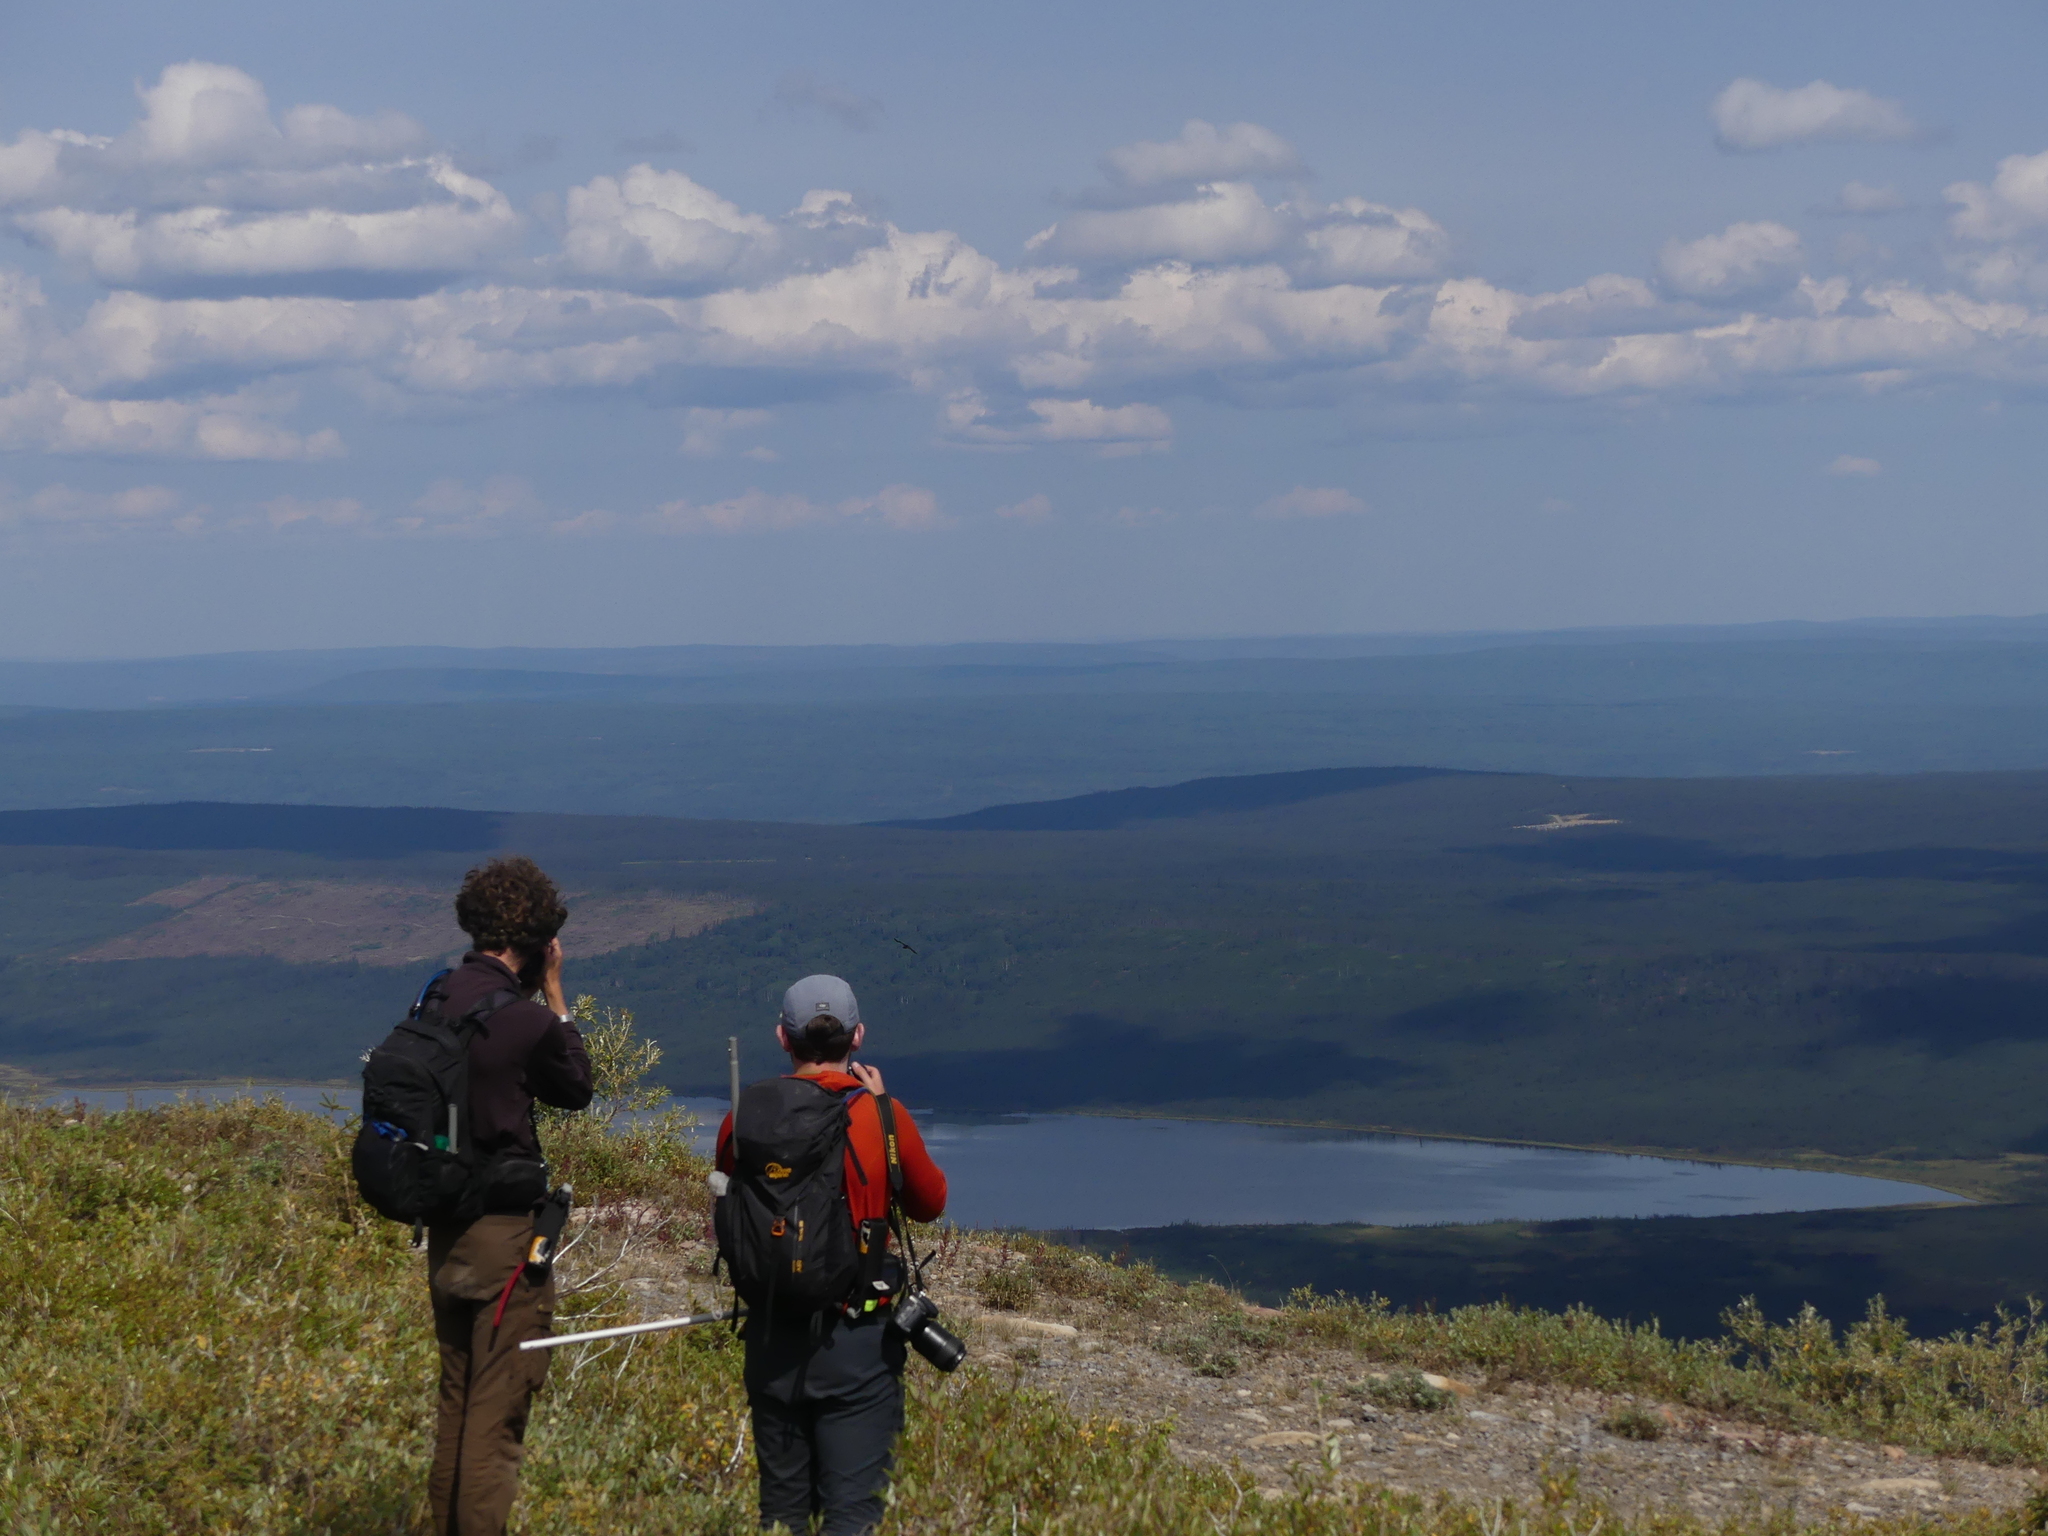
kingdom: Animalia
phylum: Chordata
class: Aves
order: Passeriformes
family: Corvidae
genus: Corvus
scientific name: Corvus corax
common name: Common raven
